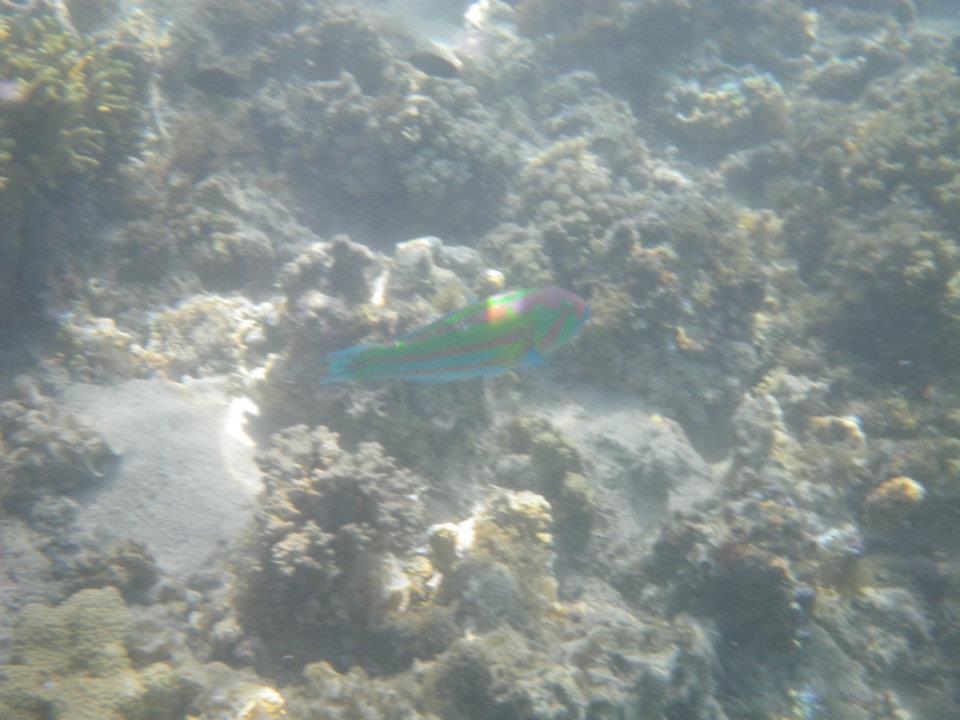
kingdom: Animalia
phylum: Chordata
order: Perciformes
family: Labridae
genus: Thalassoma
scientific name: Thalassoma purpureum
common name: Parrotfish
